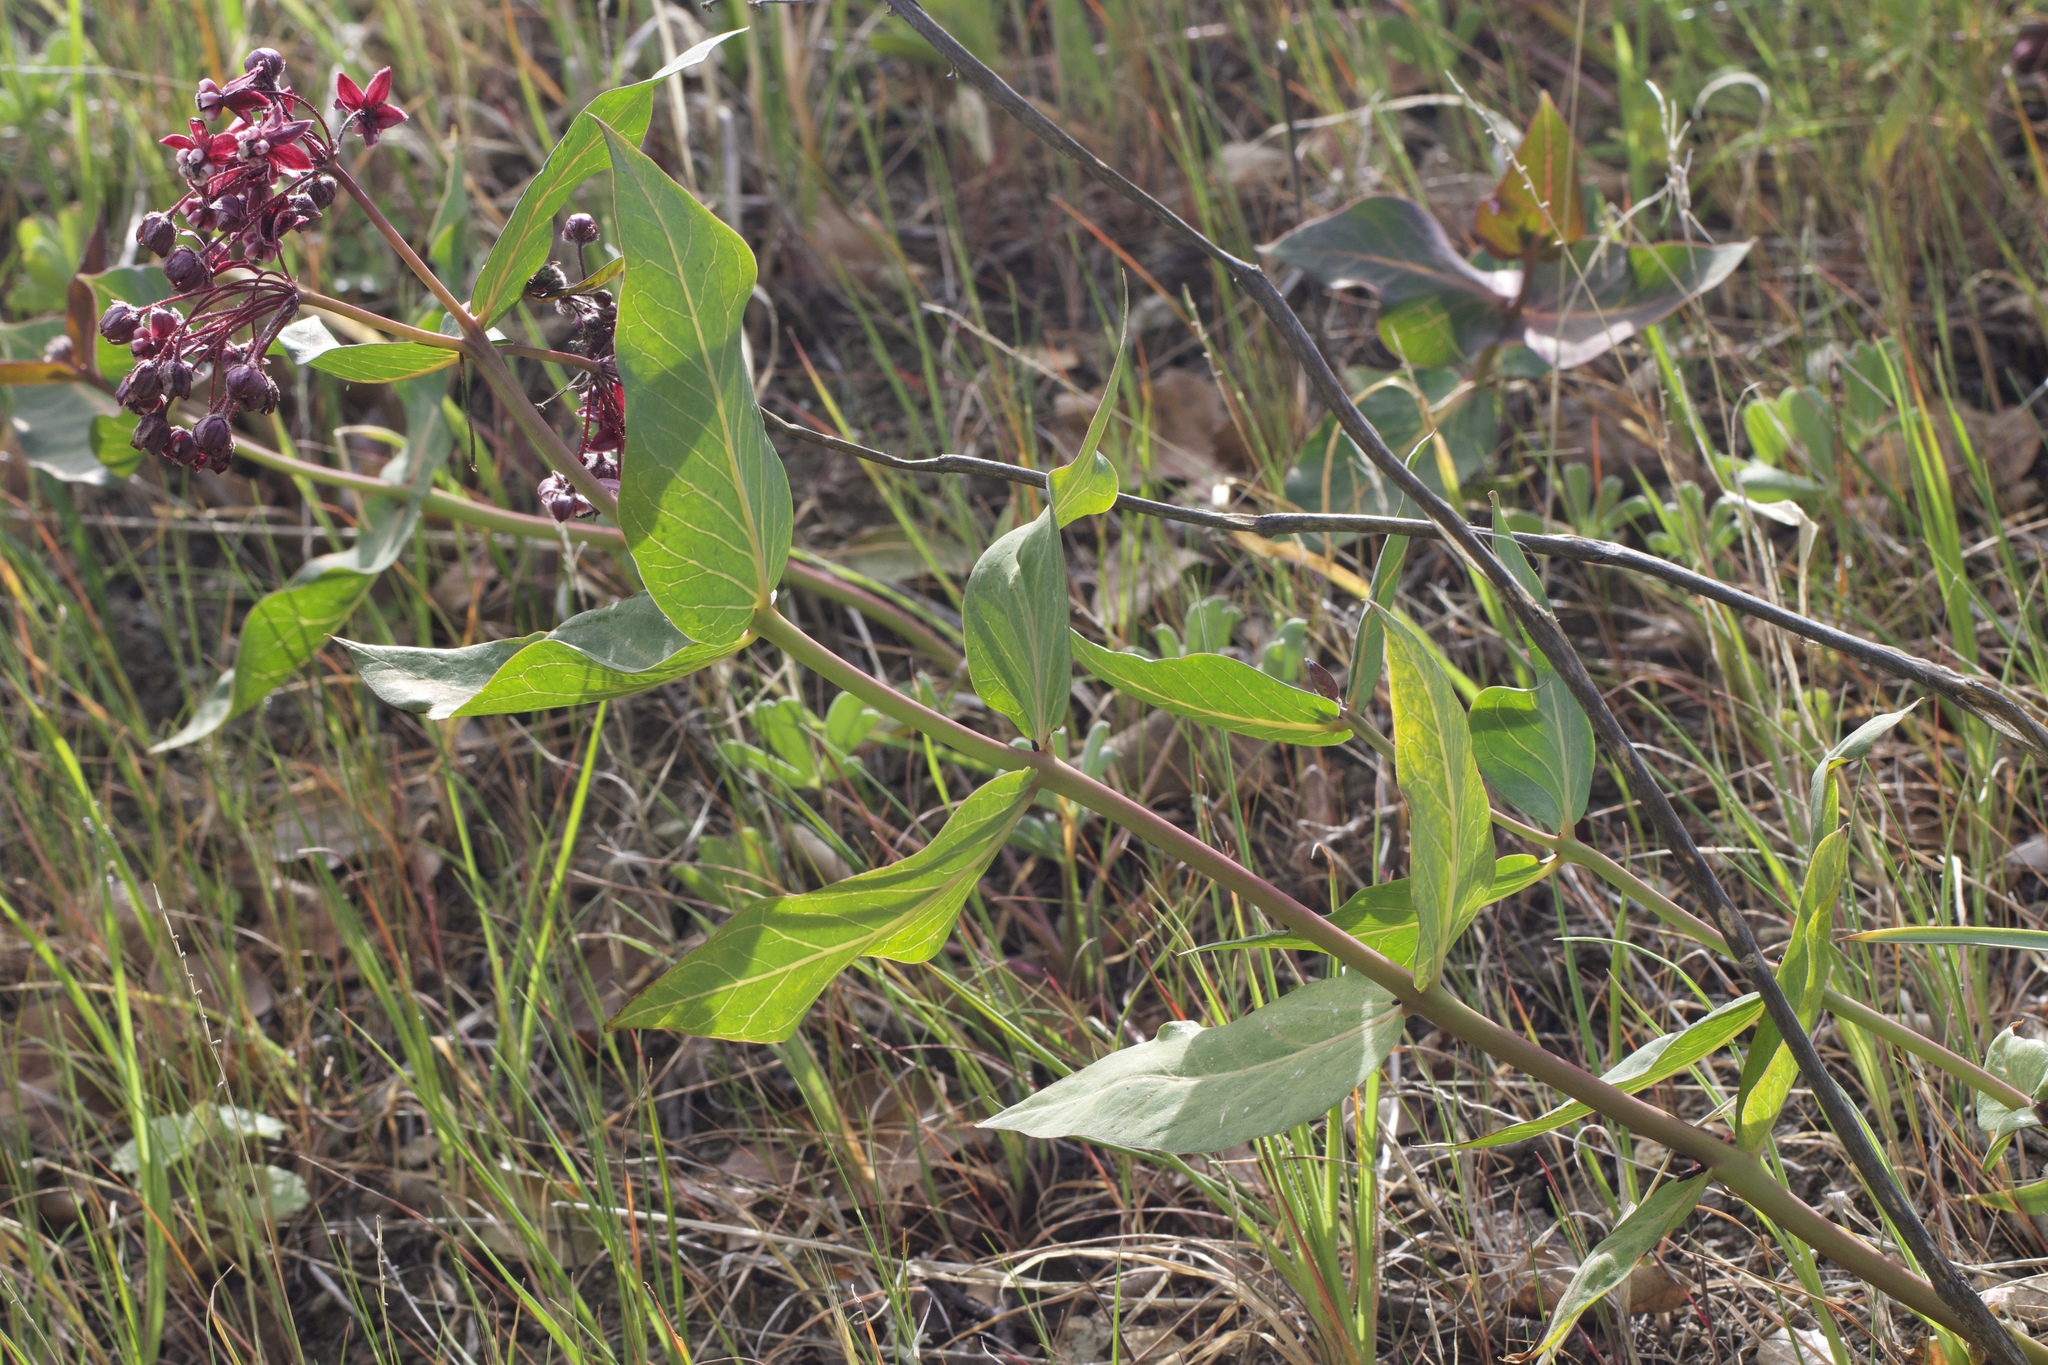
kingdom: Plantae
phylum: Tracheophyta
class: Magnoliopsida
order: Gentianales
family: Apocynaceae
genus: Asclepias
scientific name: Asclepias cordifolia
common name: Purple milkweed
